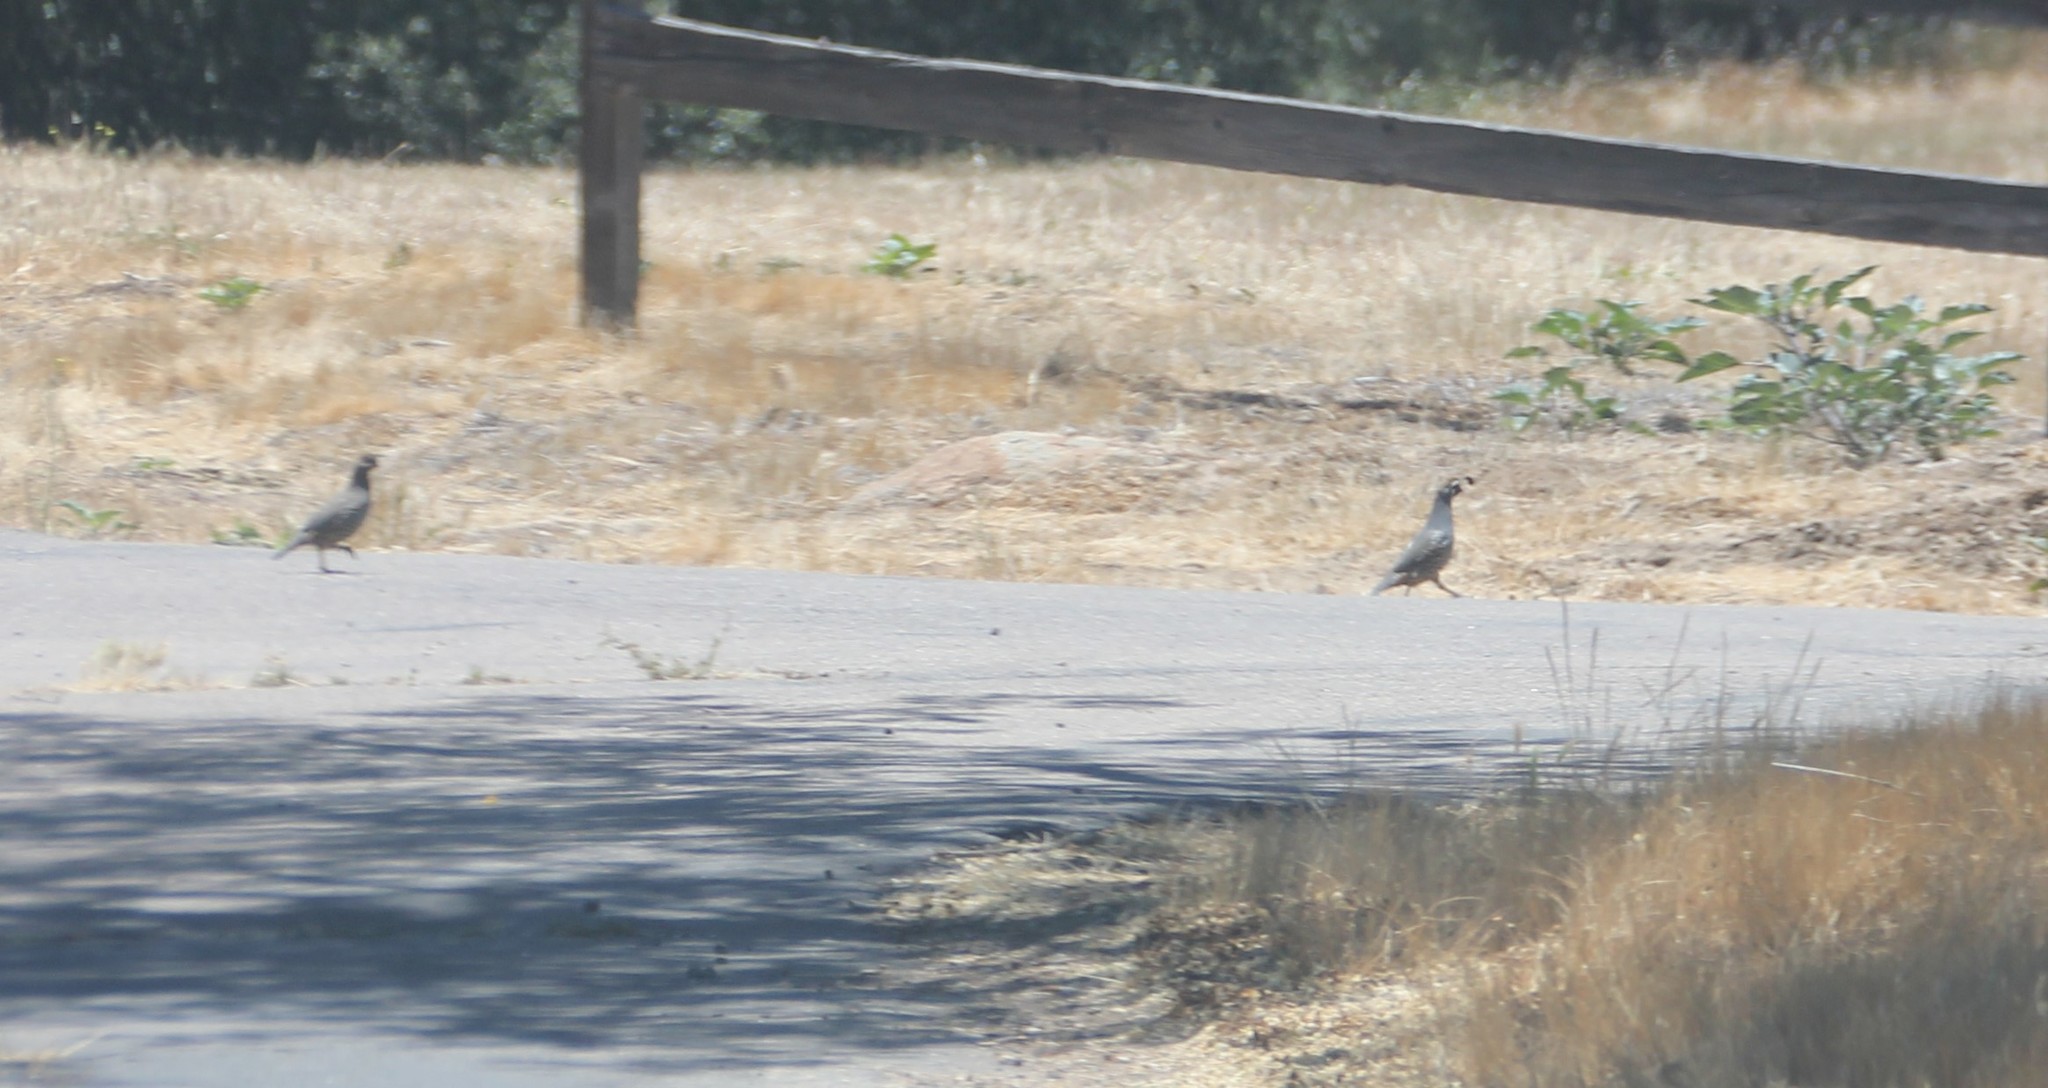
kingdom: Animalia
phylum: Chordata
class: Aves
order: Galliformes
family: Odontophoridae
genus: Callipepla
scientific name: Callipepla californica
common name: California quail
